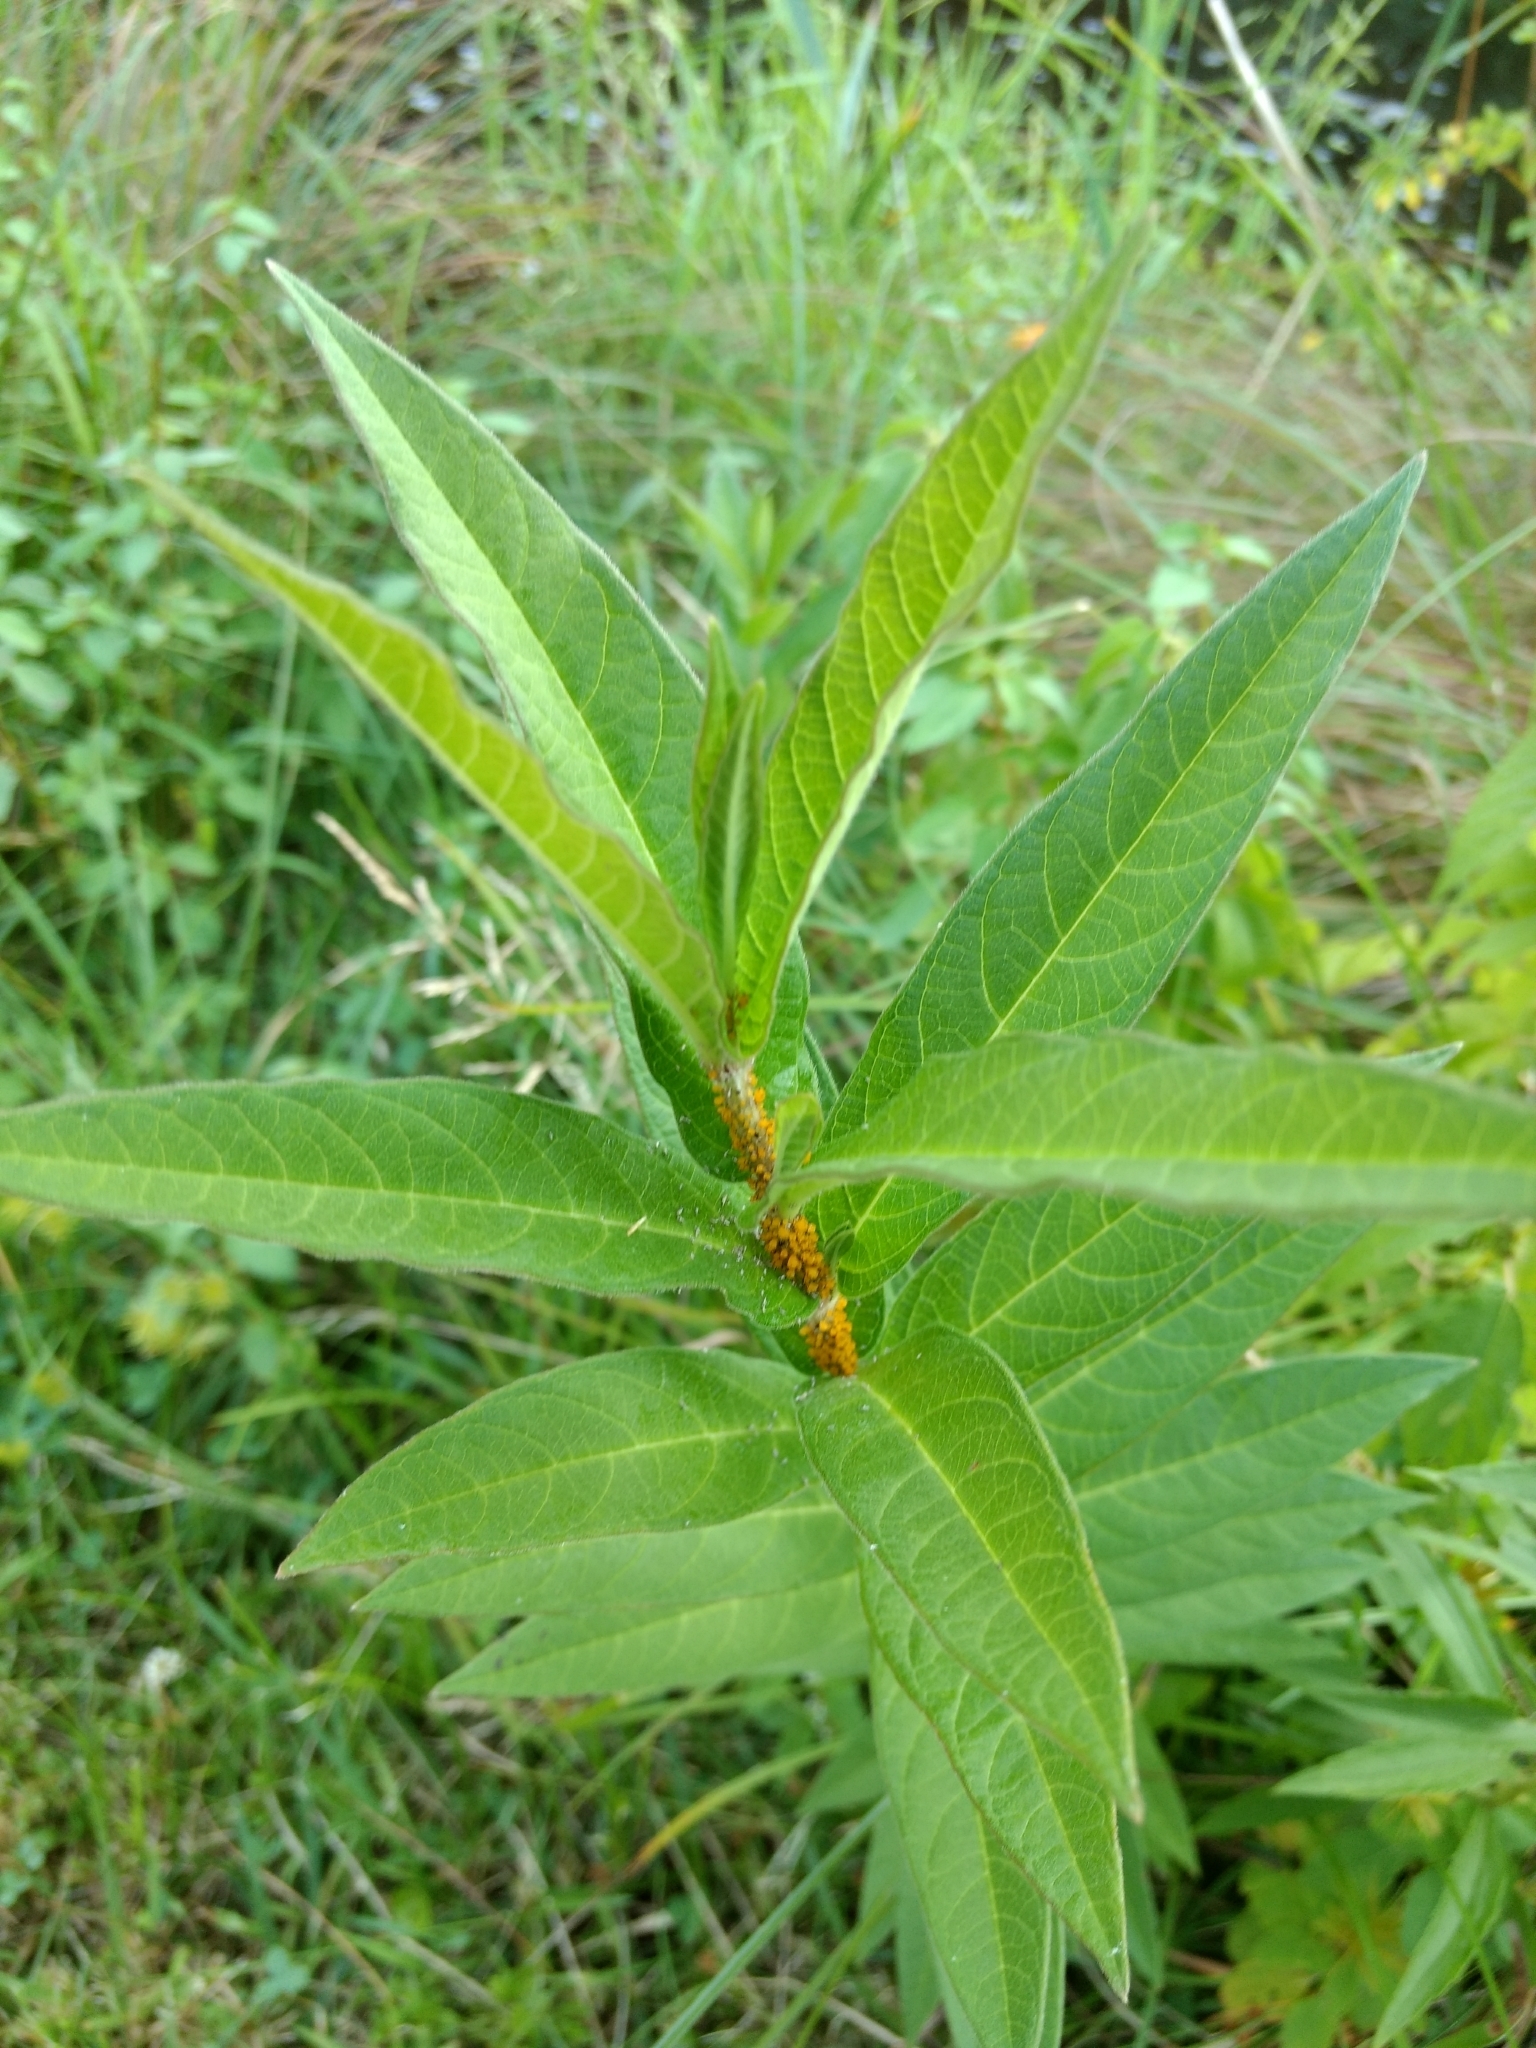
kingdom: Plantae
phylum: Tracheophyta
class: Magnoliopsida
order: Gentianales
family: Apocynaceae
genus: Asclepias
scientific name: Asclepias incarnata
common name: Swamp milkweed
